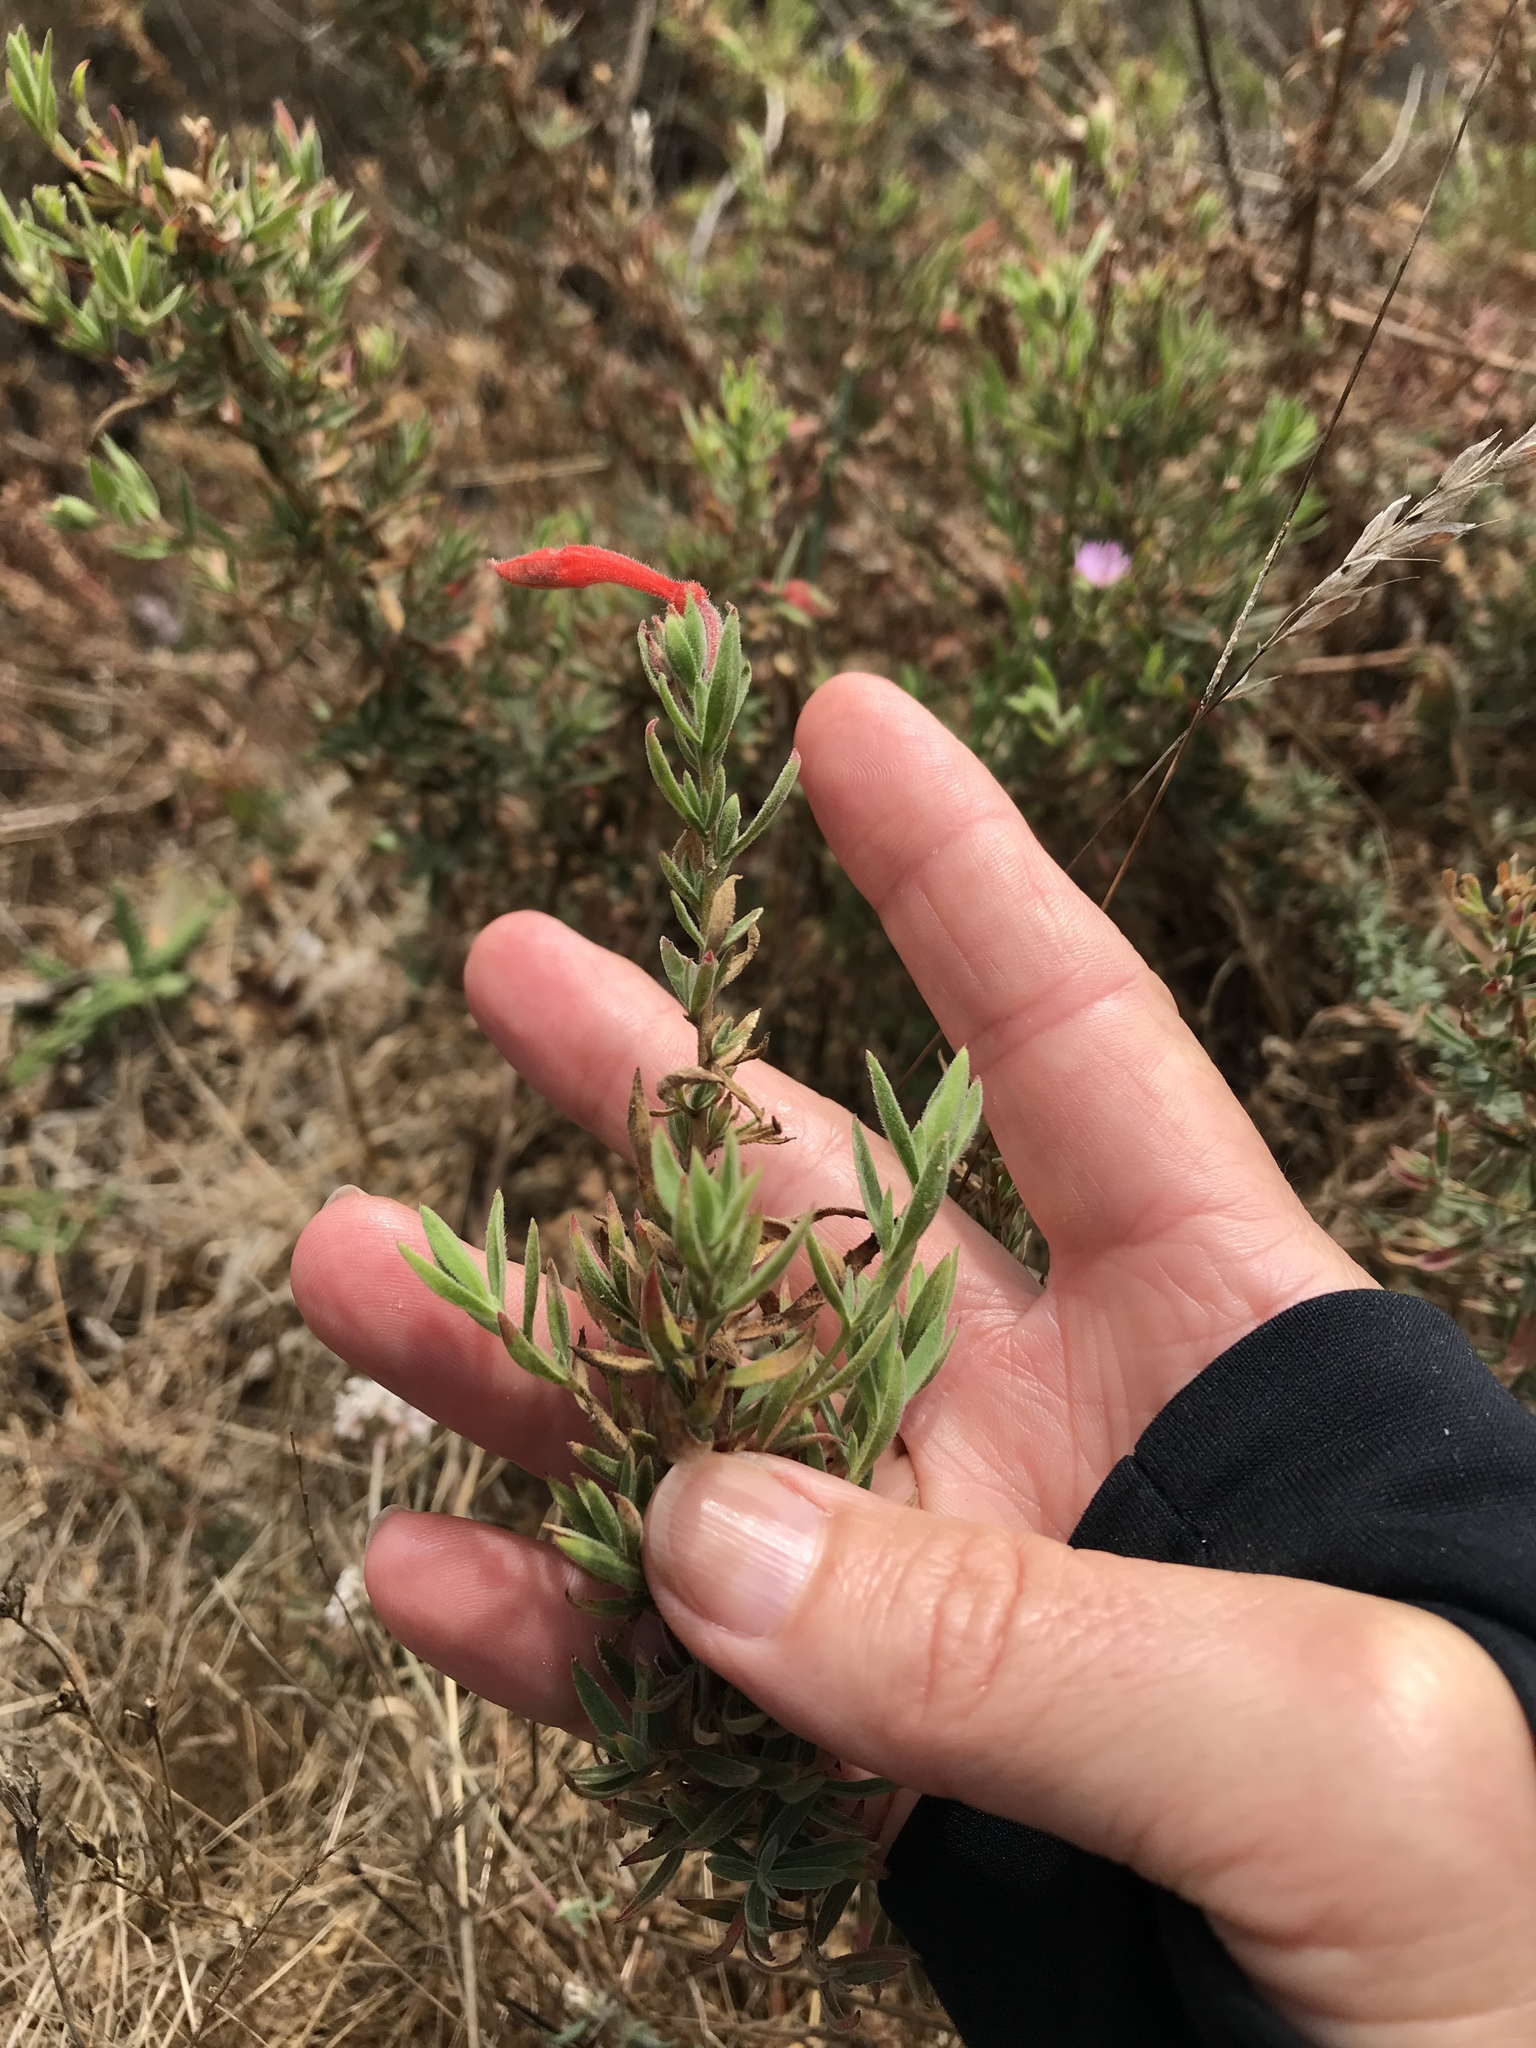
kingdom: Plantae
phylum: Tracheophyta
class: Magnoliopsida
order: Myrtales
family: Onagraceae
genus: Epilobium
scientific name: Epilobium canum
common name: California-fuchsia
